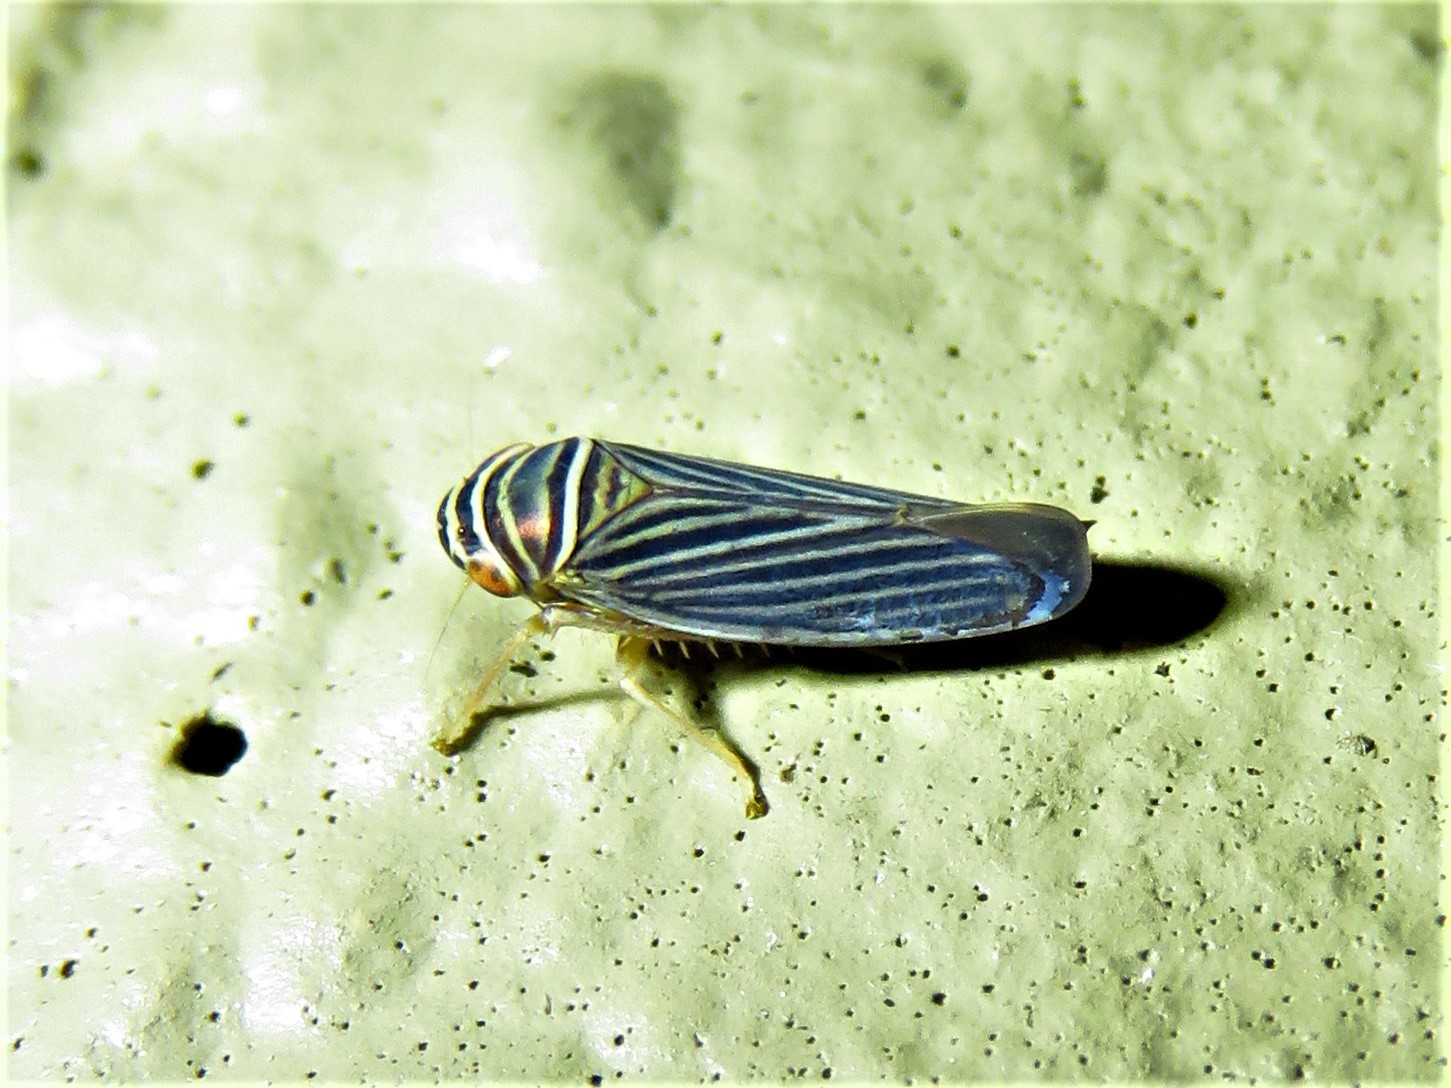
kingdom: Animalia
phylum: Arthropoda
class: Insecta
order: Hemiptera
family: Cicadellidae
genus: Tylozygus
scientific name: Tylozygus bifidus
